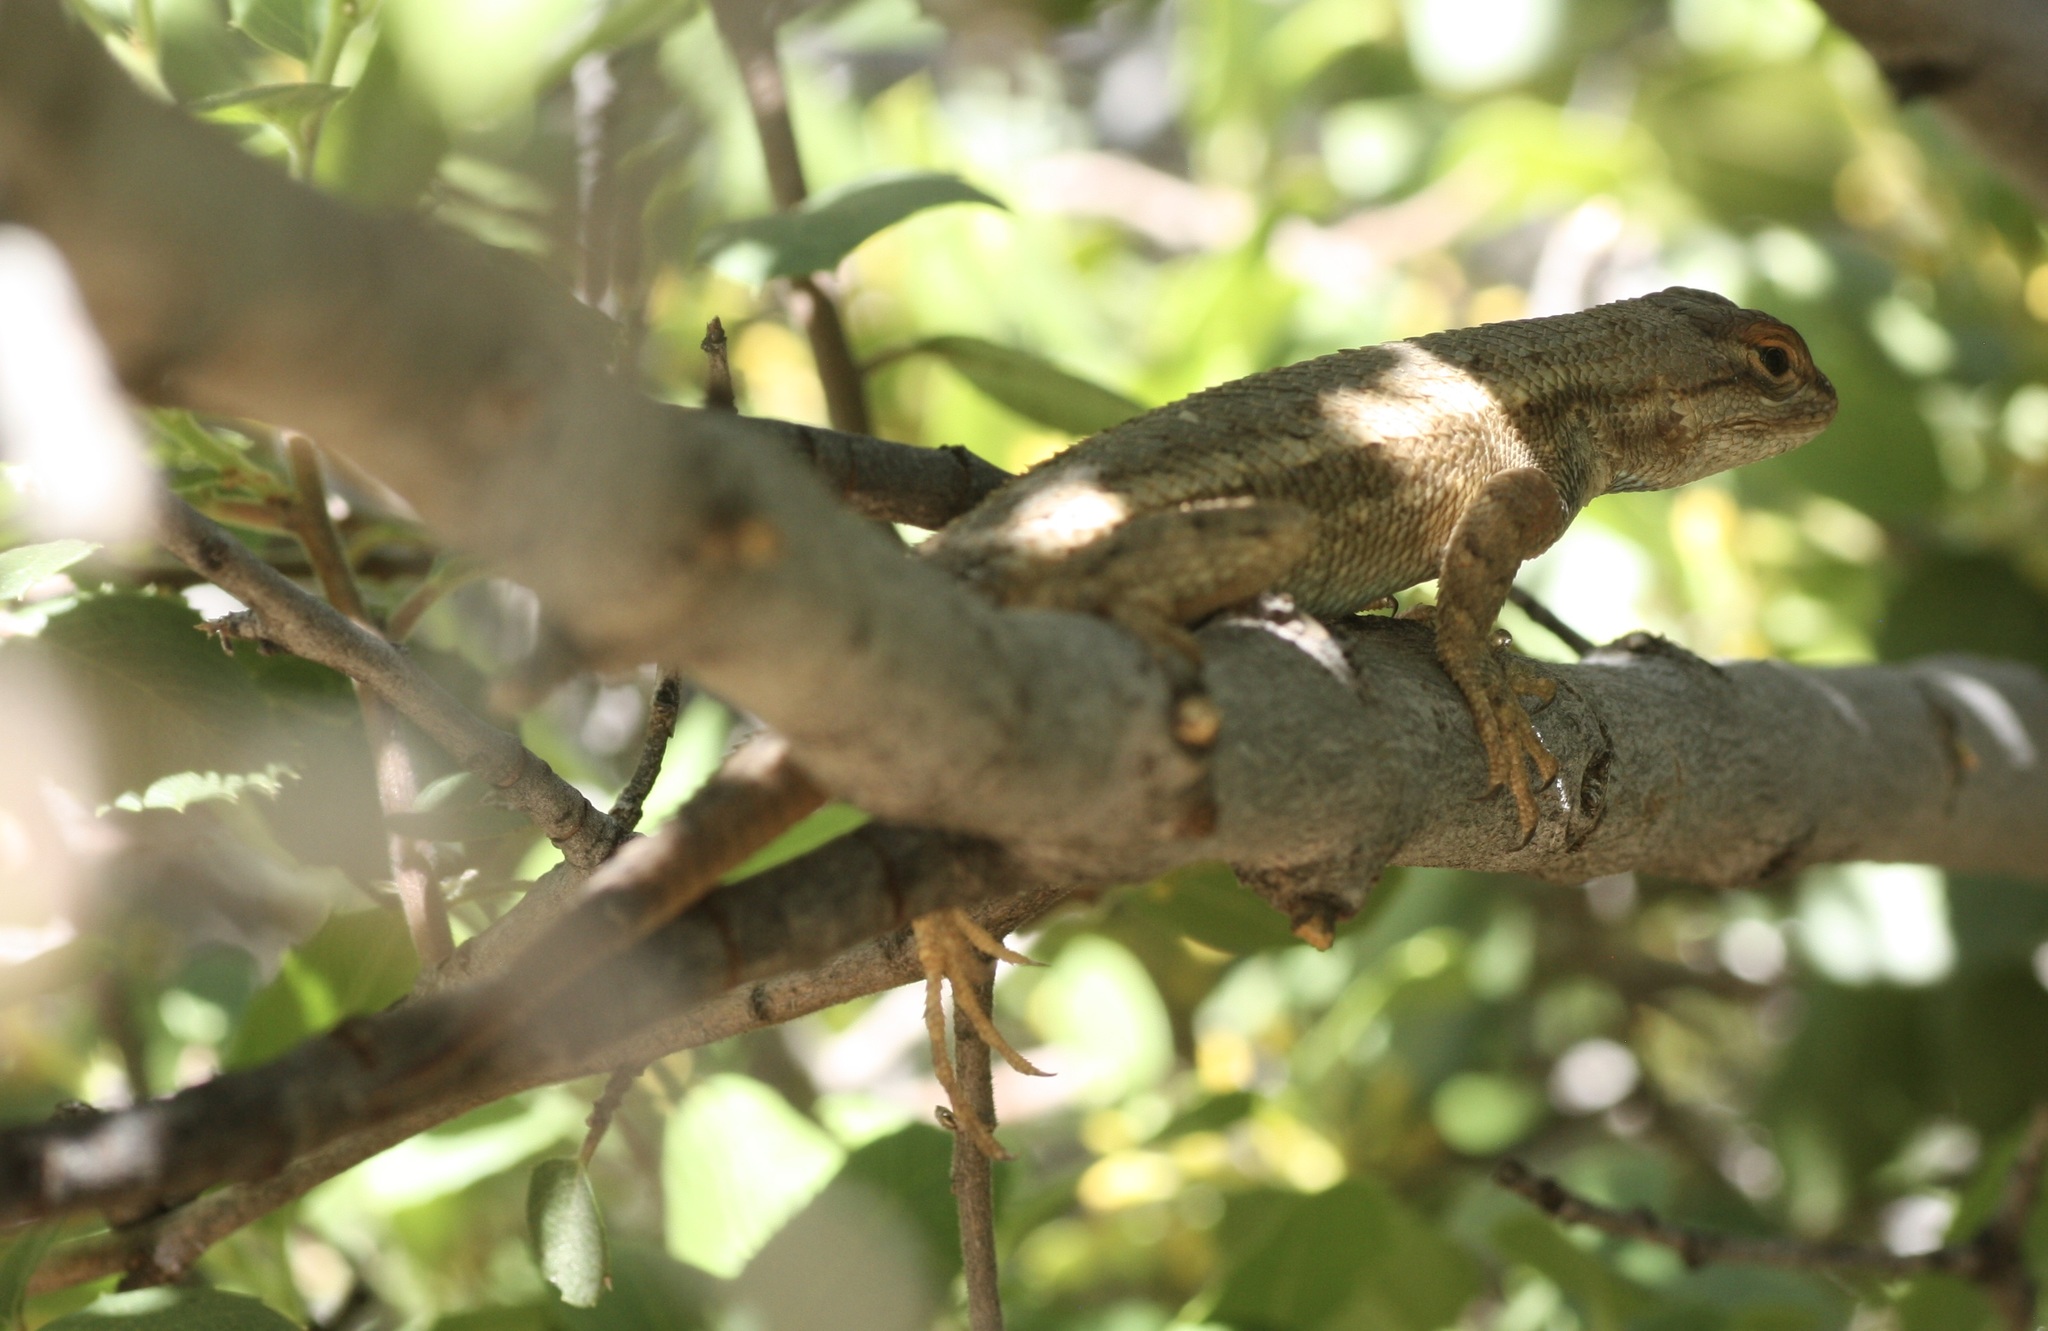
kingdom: Animalia
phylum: Chordata
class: Squamata
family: Phrynosomatidae
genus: Sceloporus
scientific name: Sceloporus tristichus
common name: Plateau fence lizard
